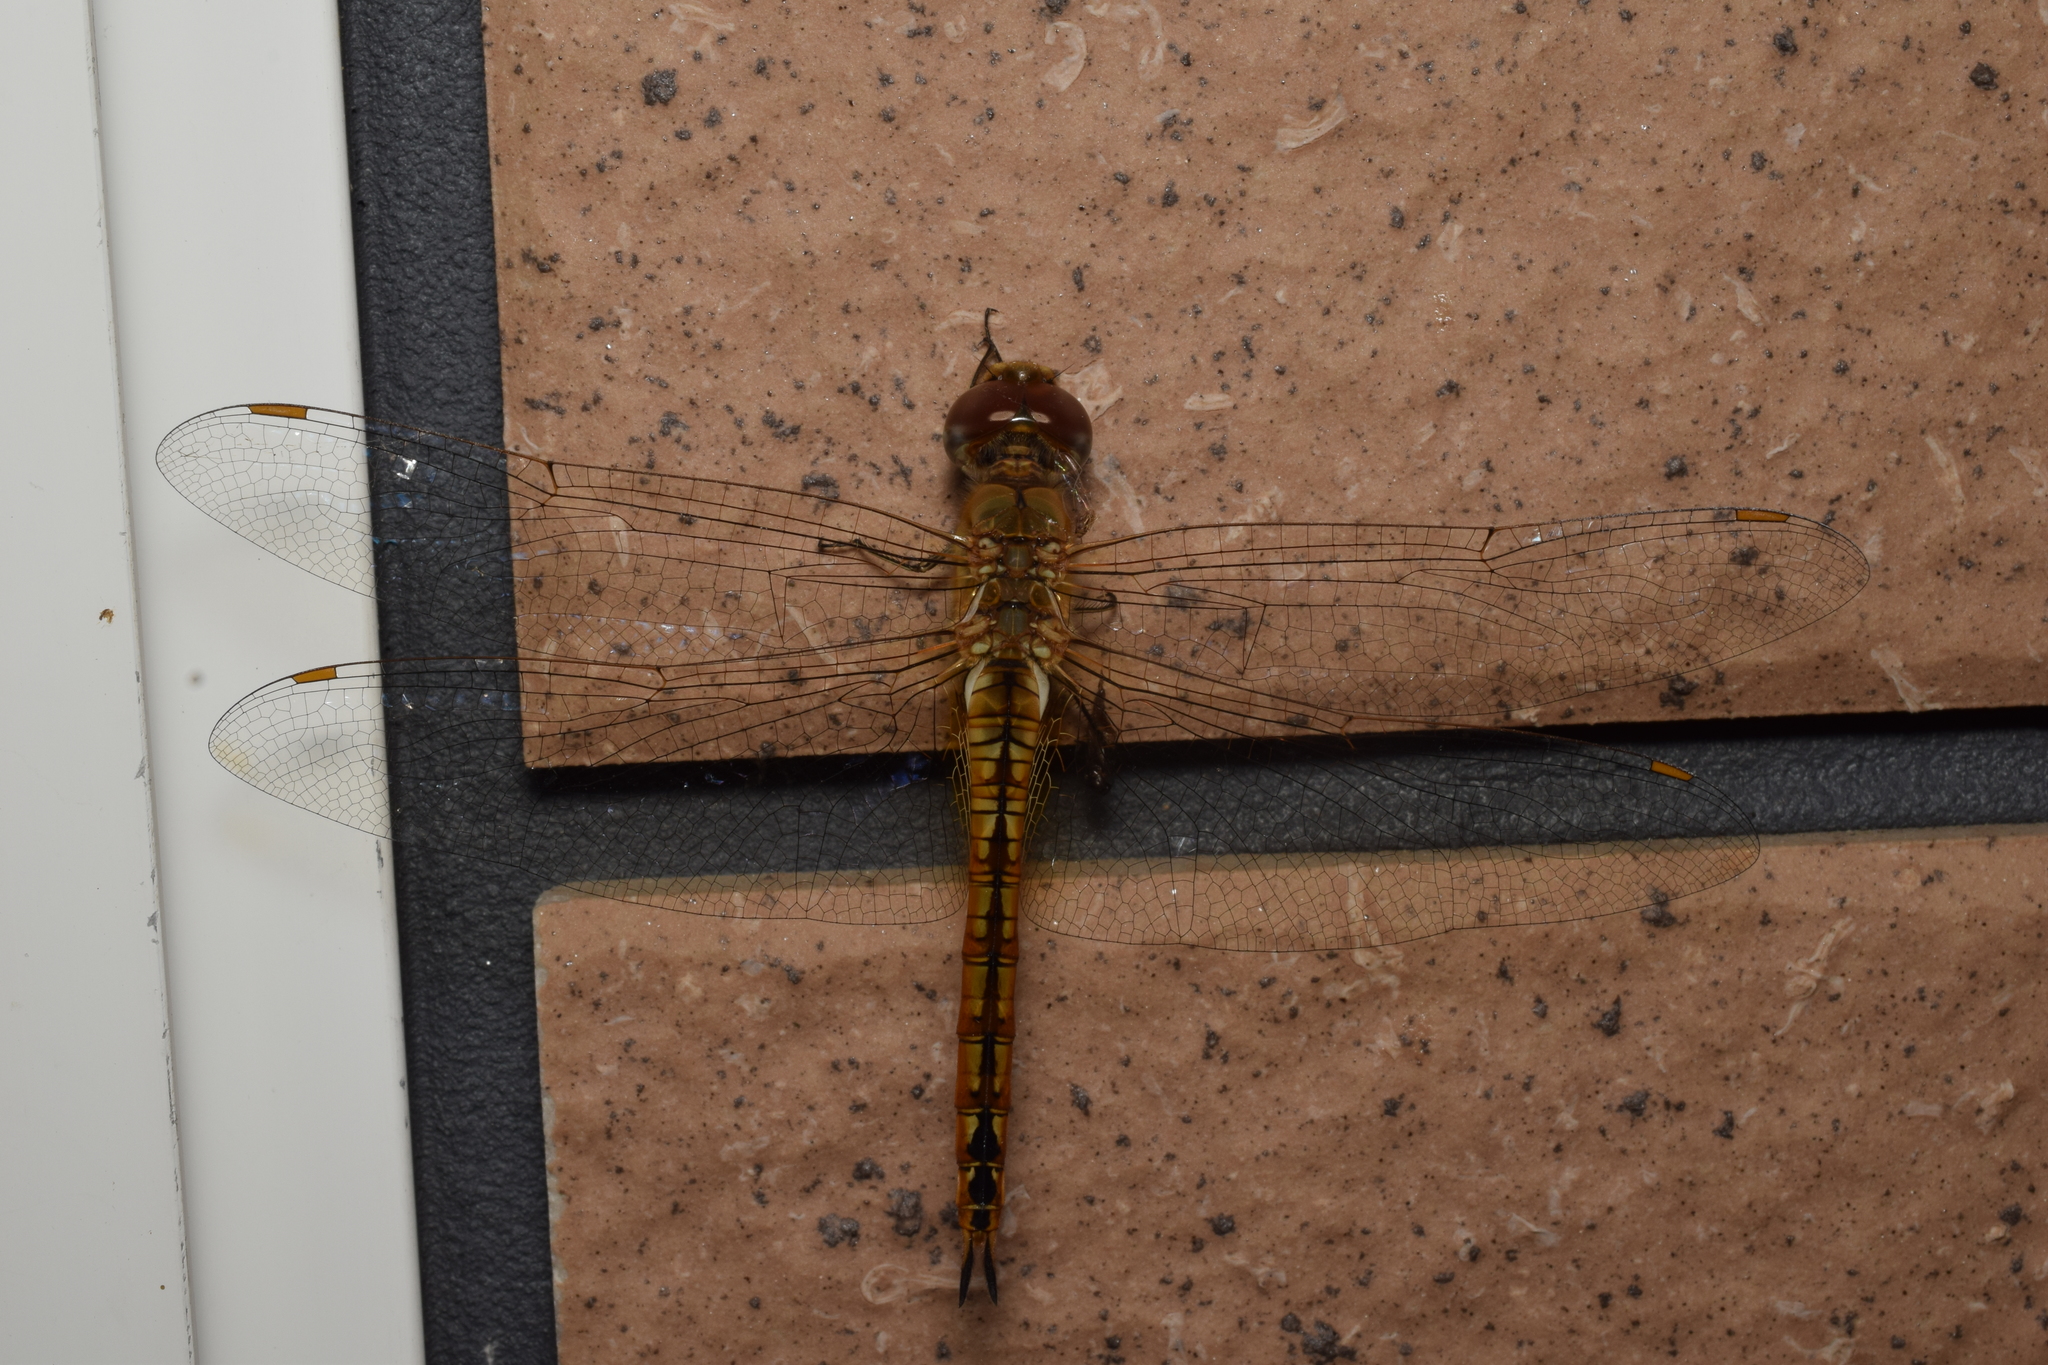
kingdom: Animalia
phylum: Arthropoda
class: Insecta
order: Odonata
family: Libellulidae
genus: Pantala
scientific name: Pantala flavescens
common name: Wandering glider
